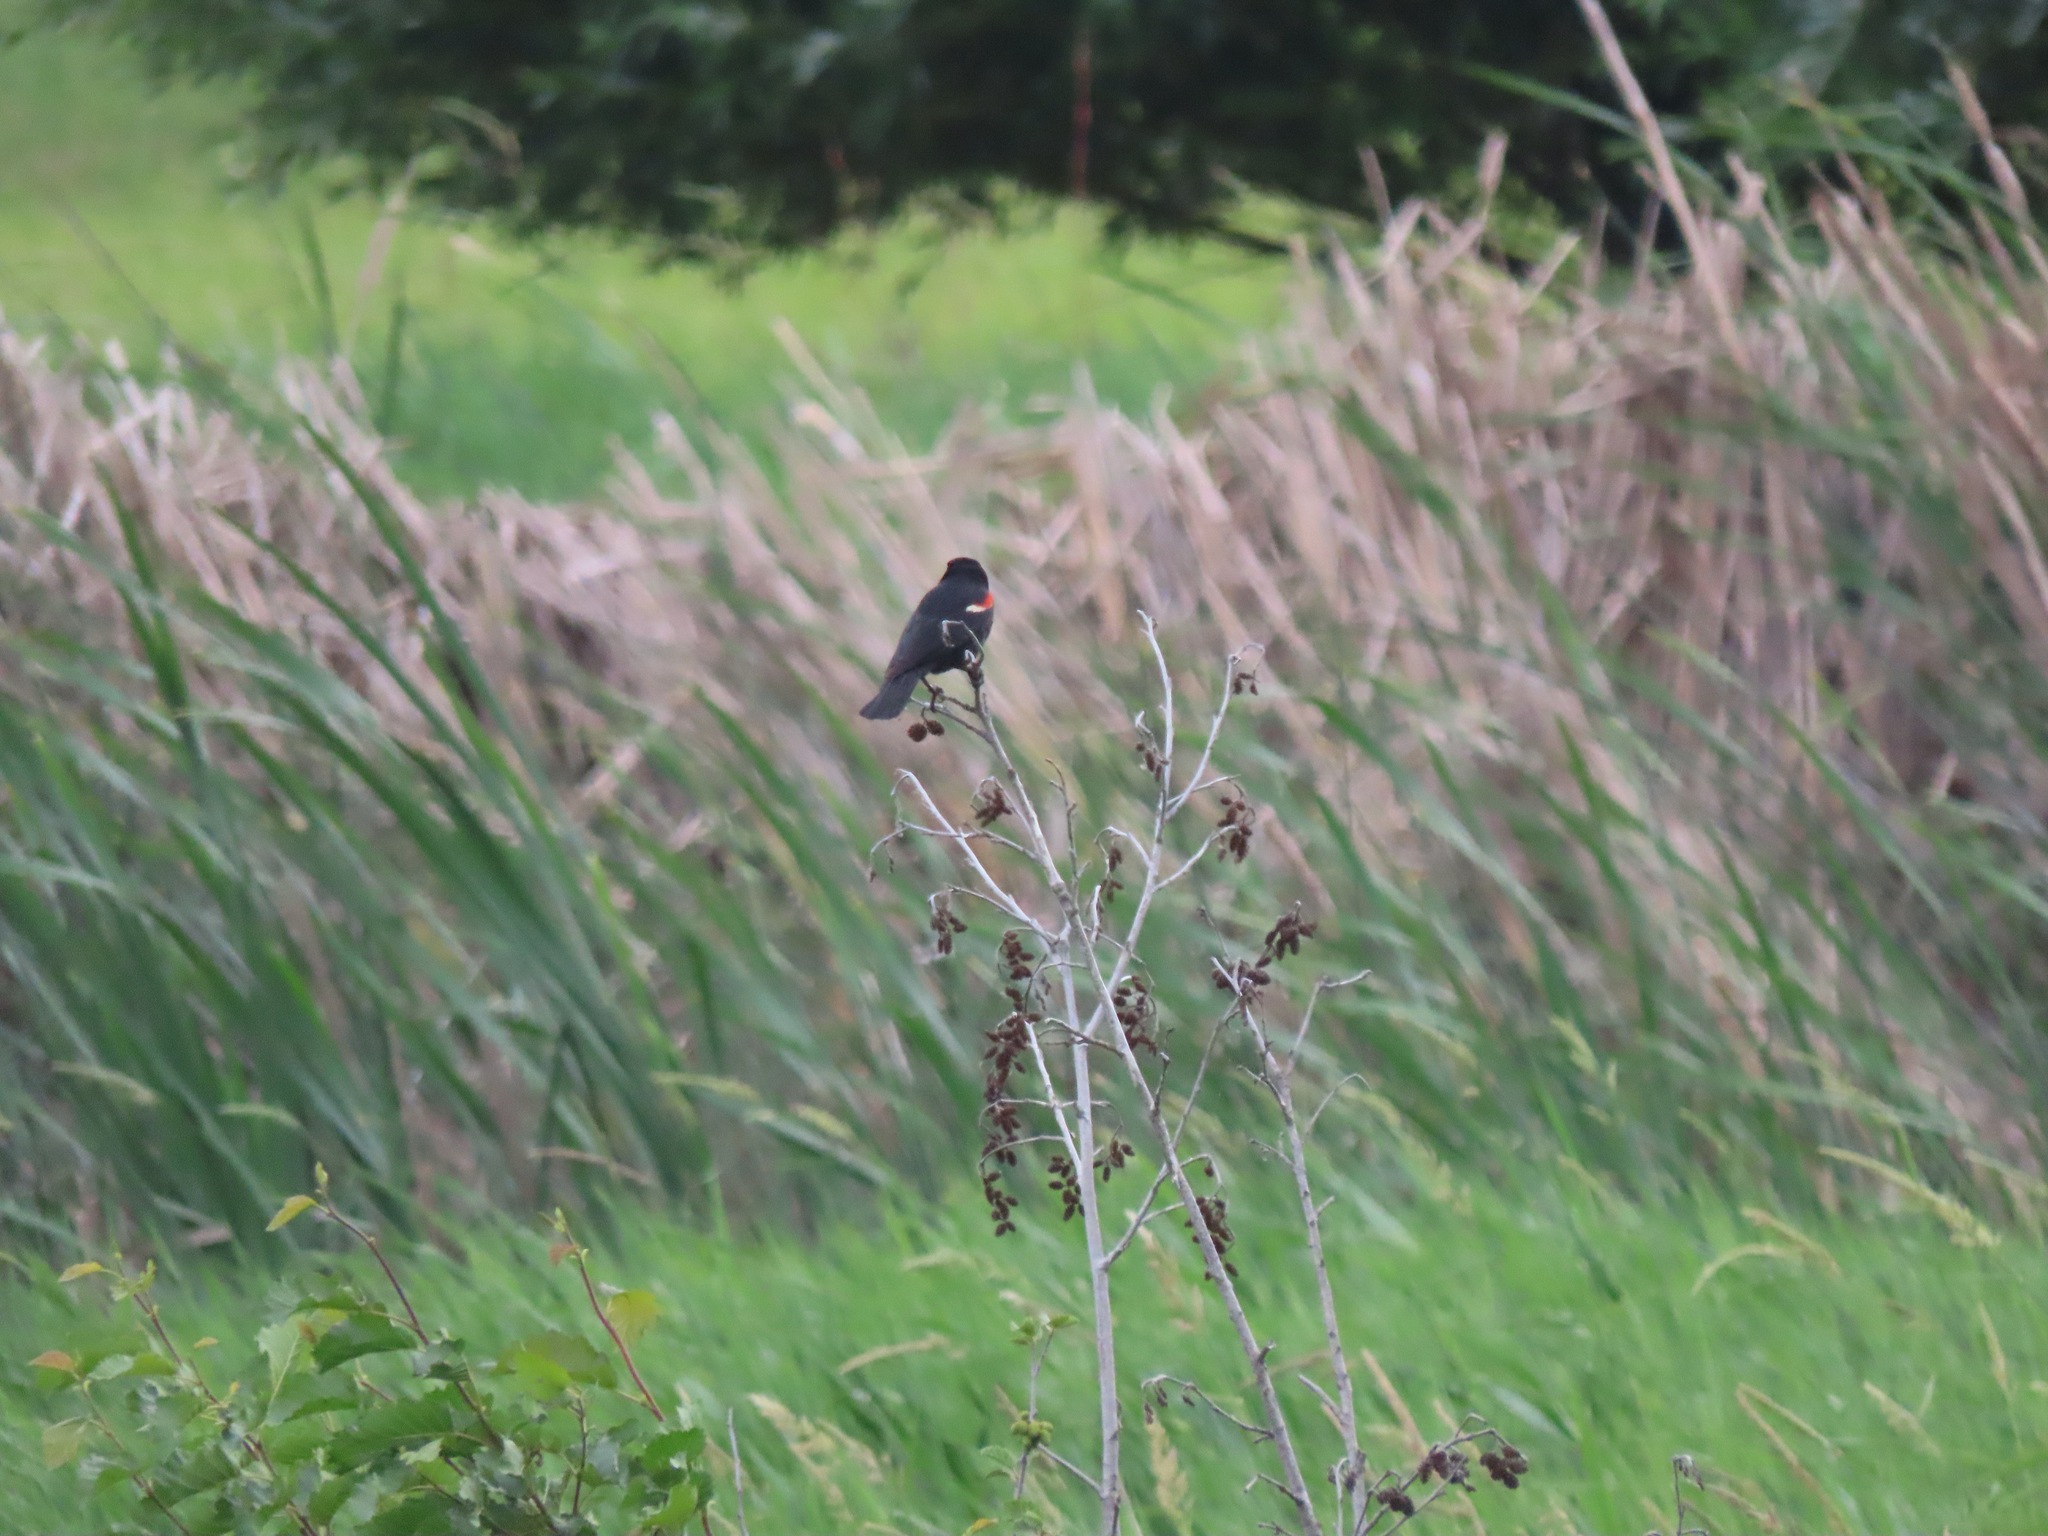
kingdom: Animalia
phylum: Chordata
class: Aves
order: Passeriformes
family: Icteridae
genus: Agelaius
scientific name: Agelaius phoeniceus
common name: Red-winged blackbird
